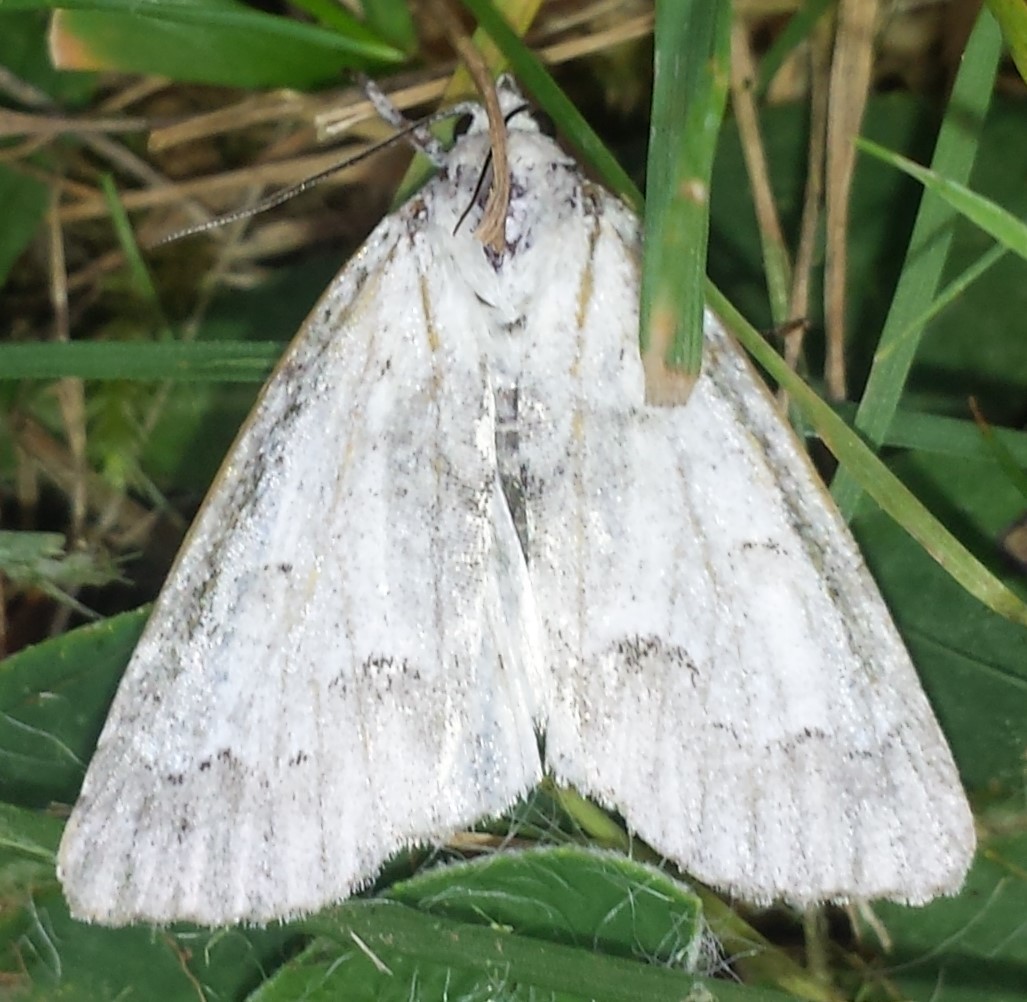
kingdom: Animalia
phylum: Arthropoda
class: Insecta
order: Lepidoptera
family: Noctuidae
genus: Acronicta
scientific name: Acronicta innotata
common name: Unmarked dagger
